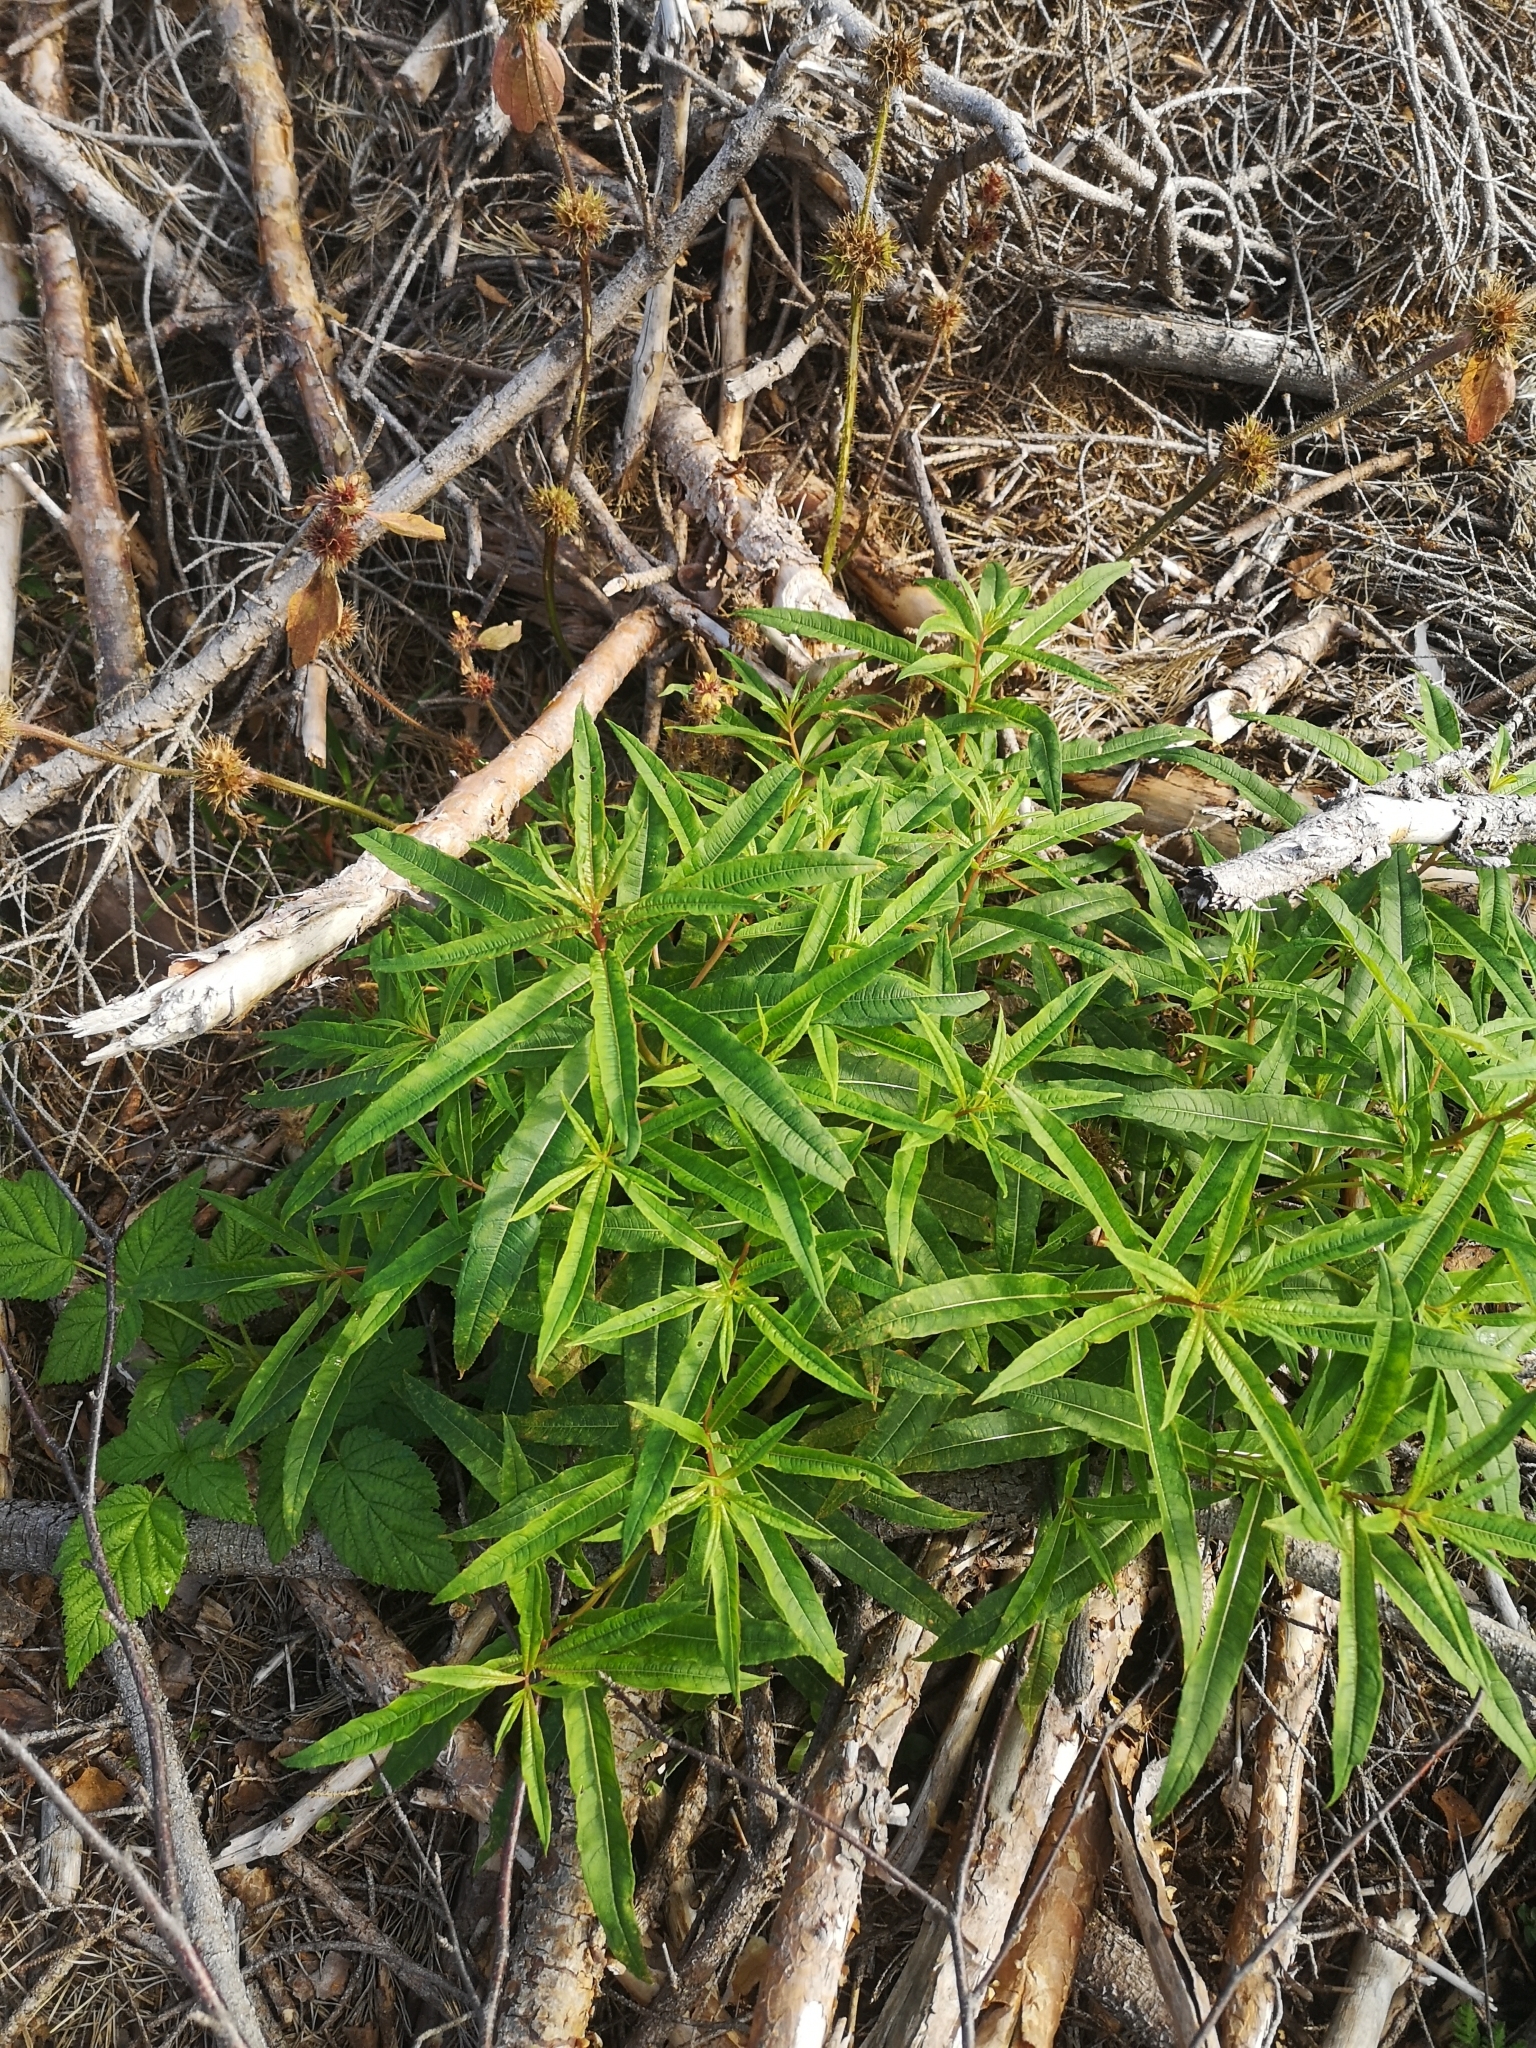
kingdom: Plantae
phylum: Tracheophyta
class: Magnoliopsida
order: Myrtales
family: Onagraceae
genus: Chamaenerion
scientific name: Chamaenerion angustifolium
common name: Fireweed
